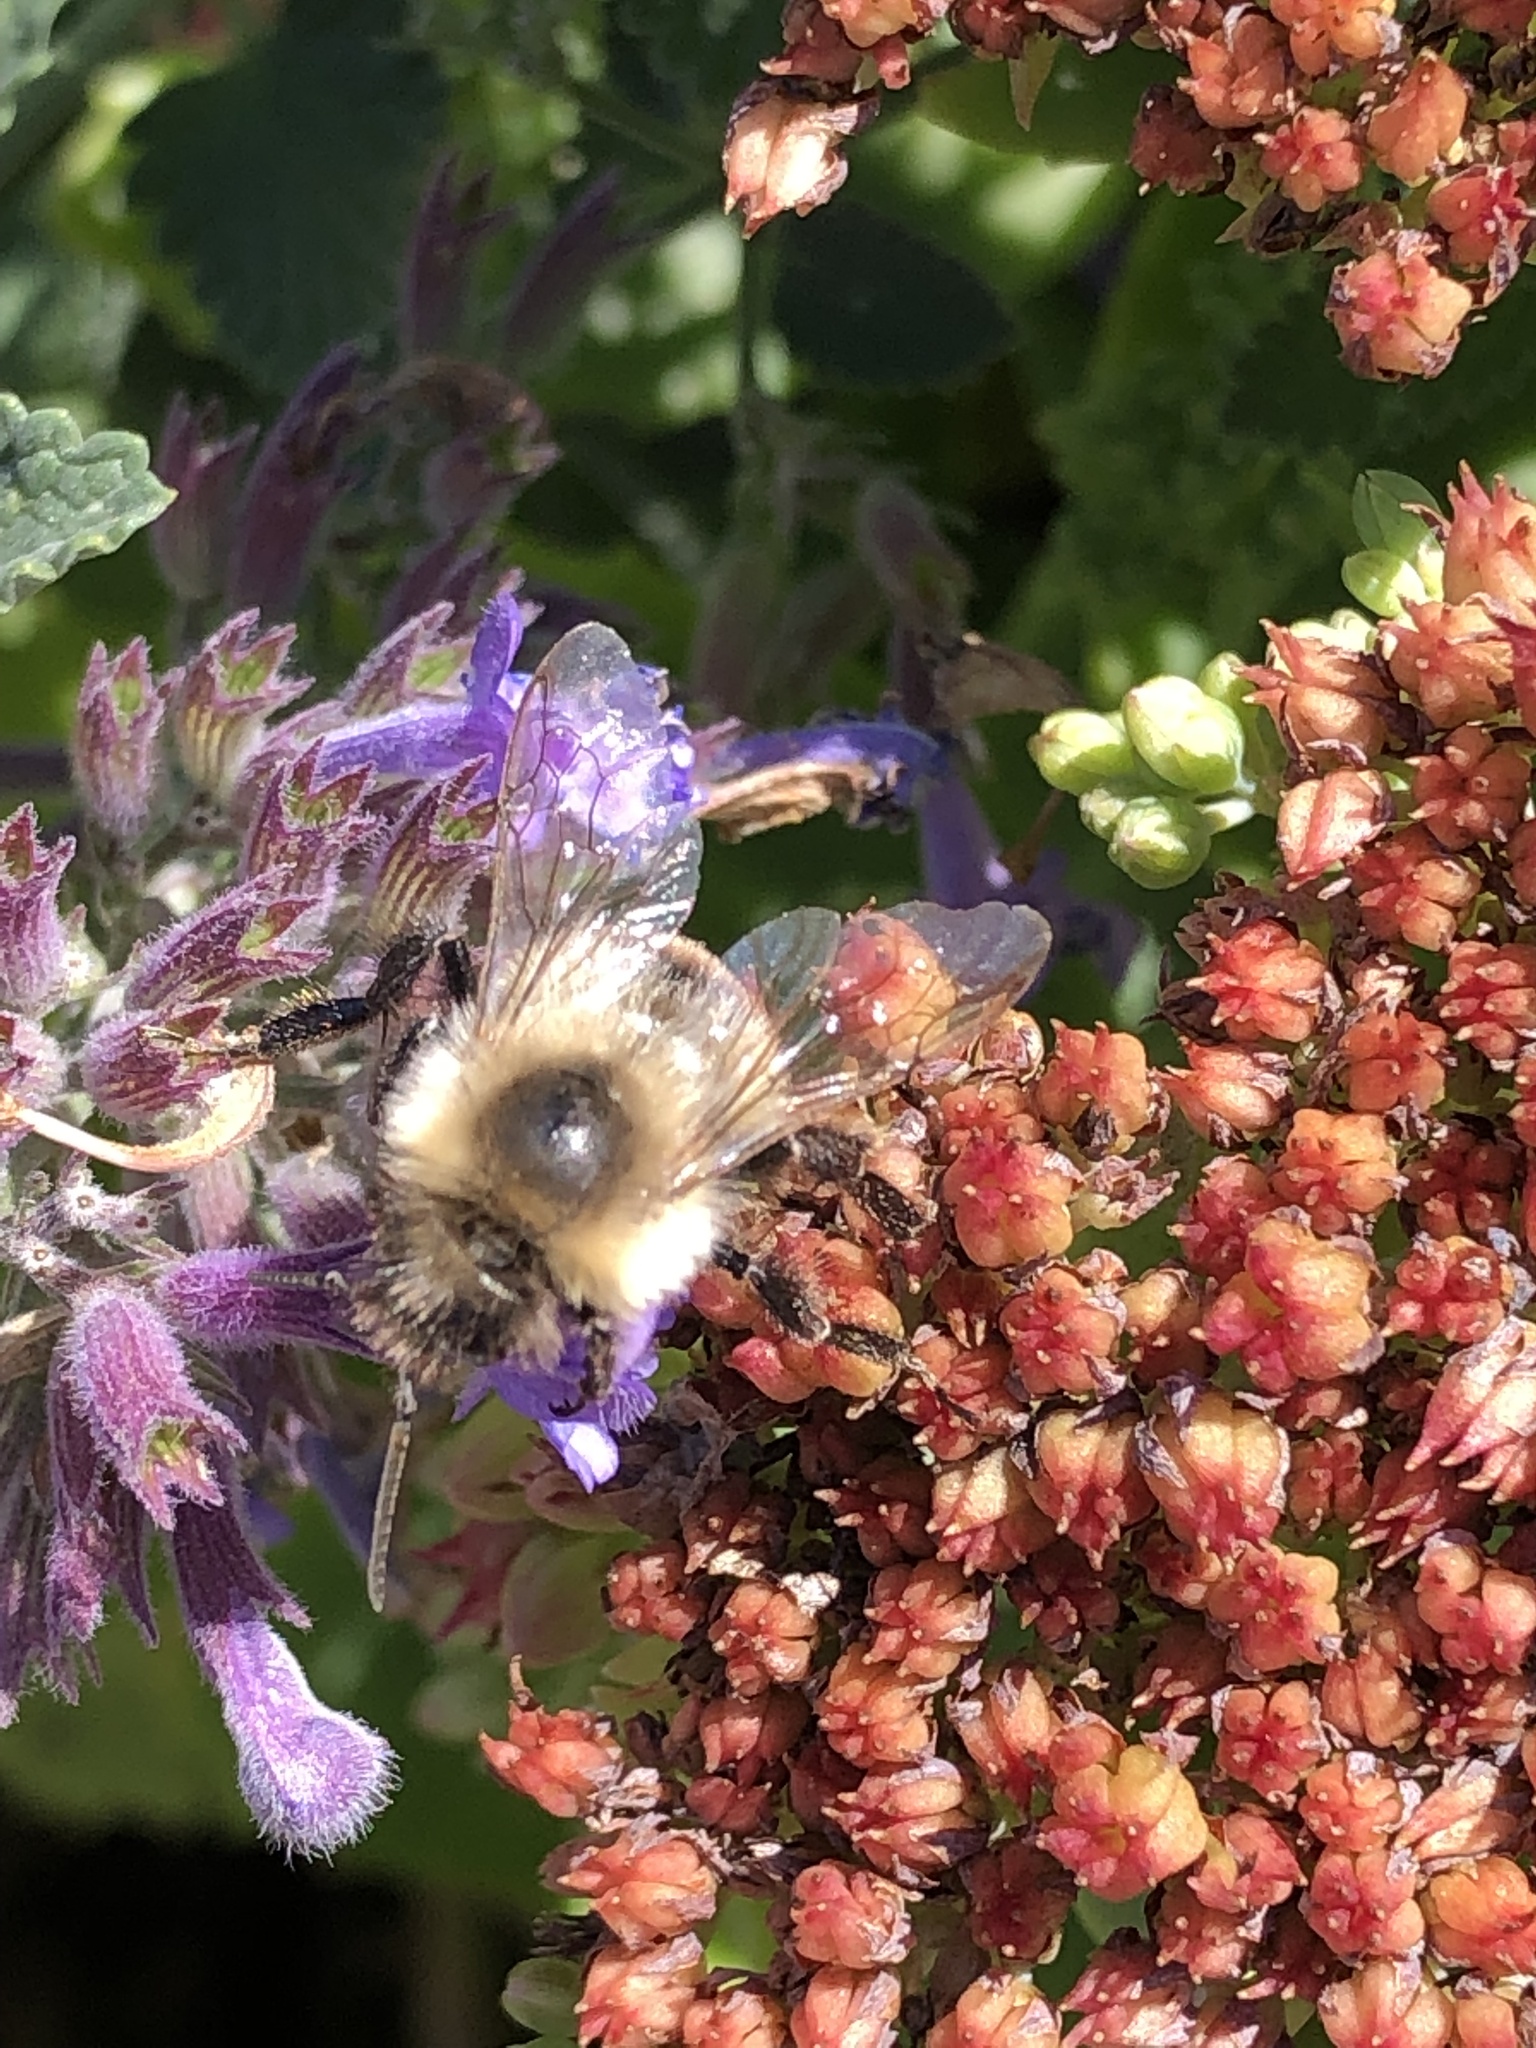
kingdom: Animalia
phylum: Arthropoda
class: Insecta
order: Hymenoptera
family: Apidae
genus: Bombus
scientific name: Bombus impatiens
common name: Common eastern bumble bee
